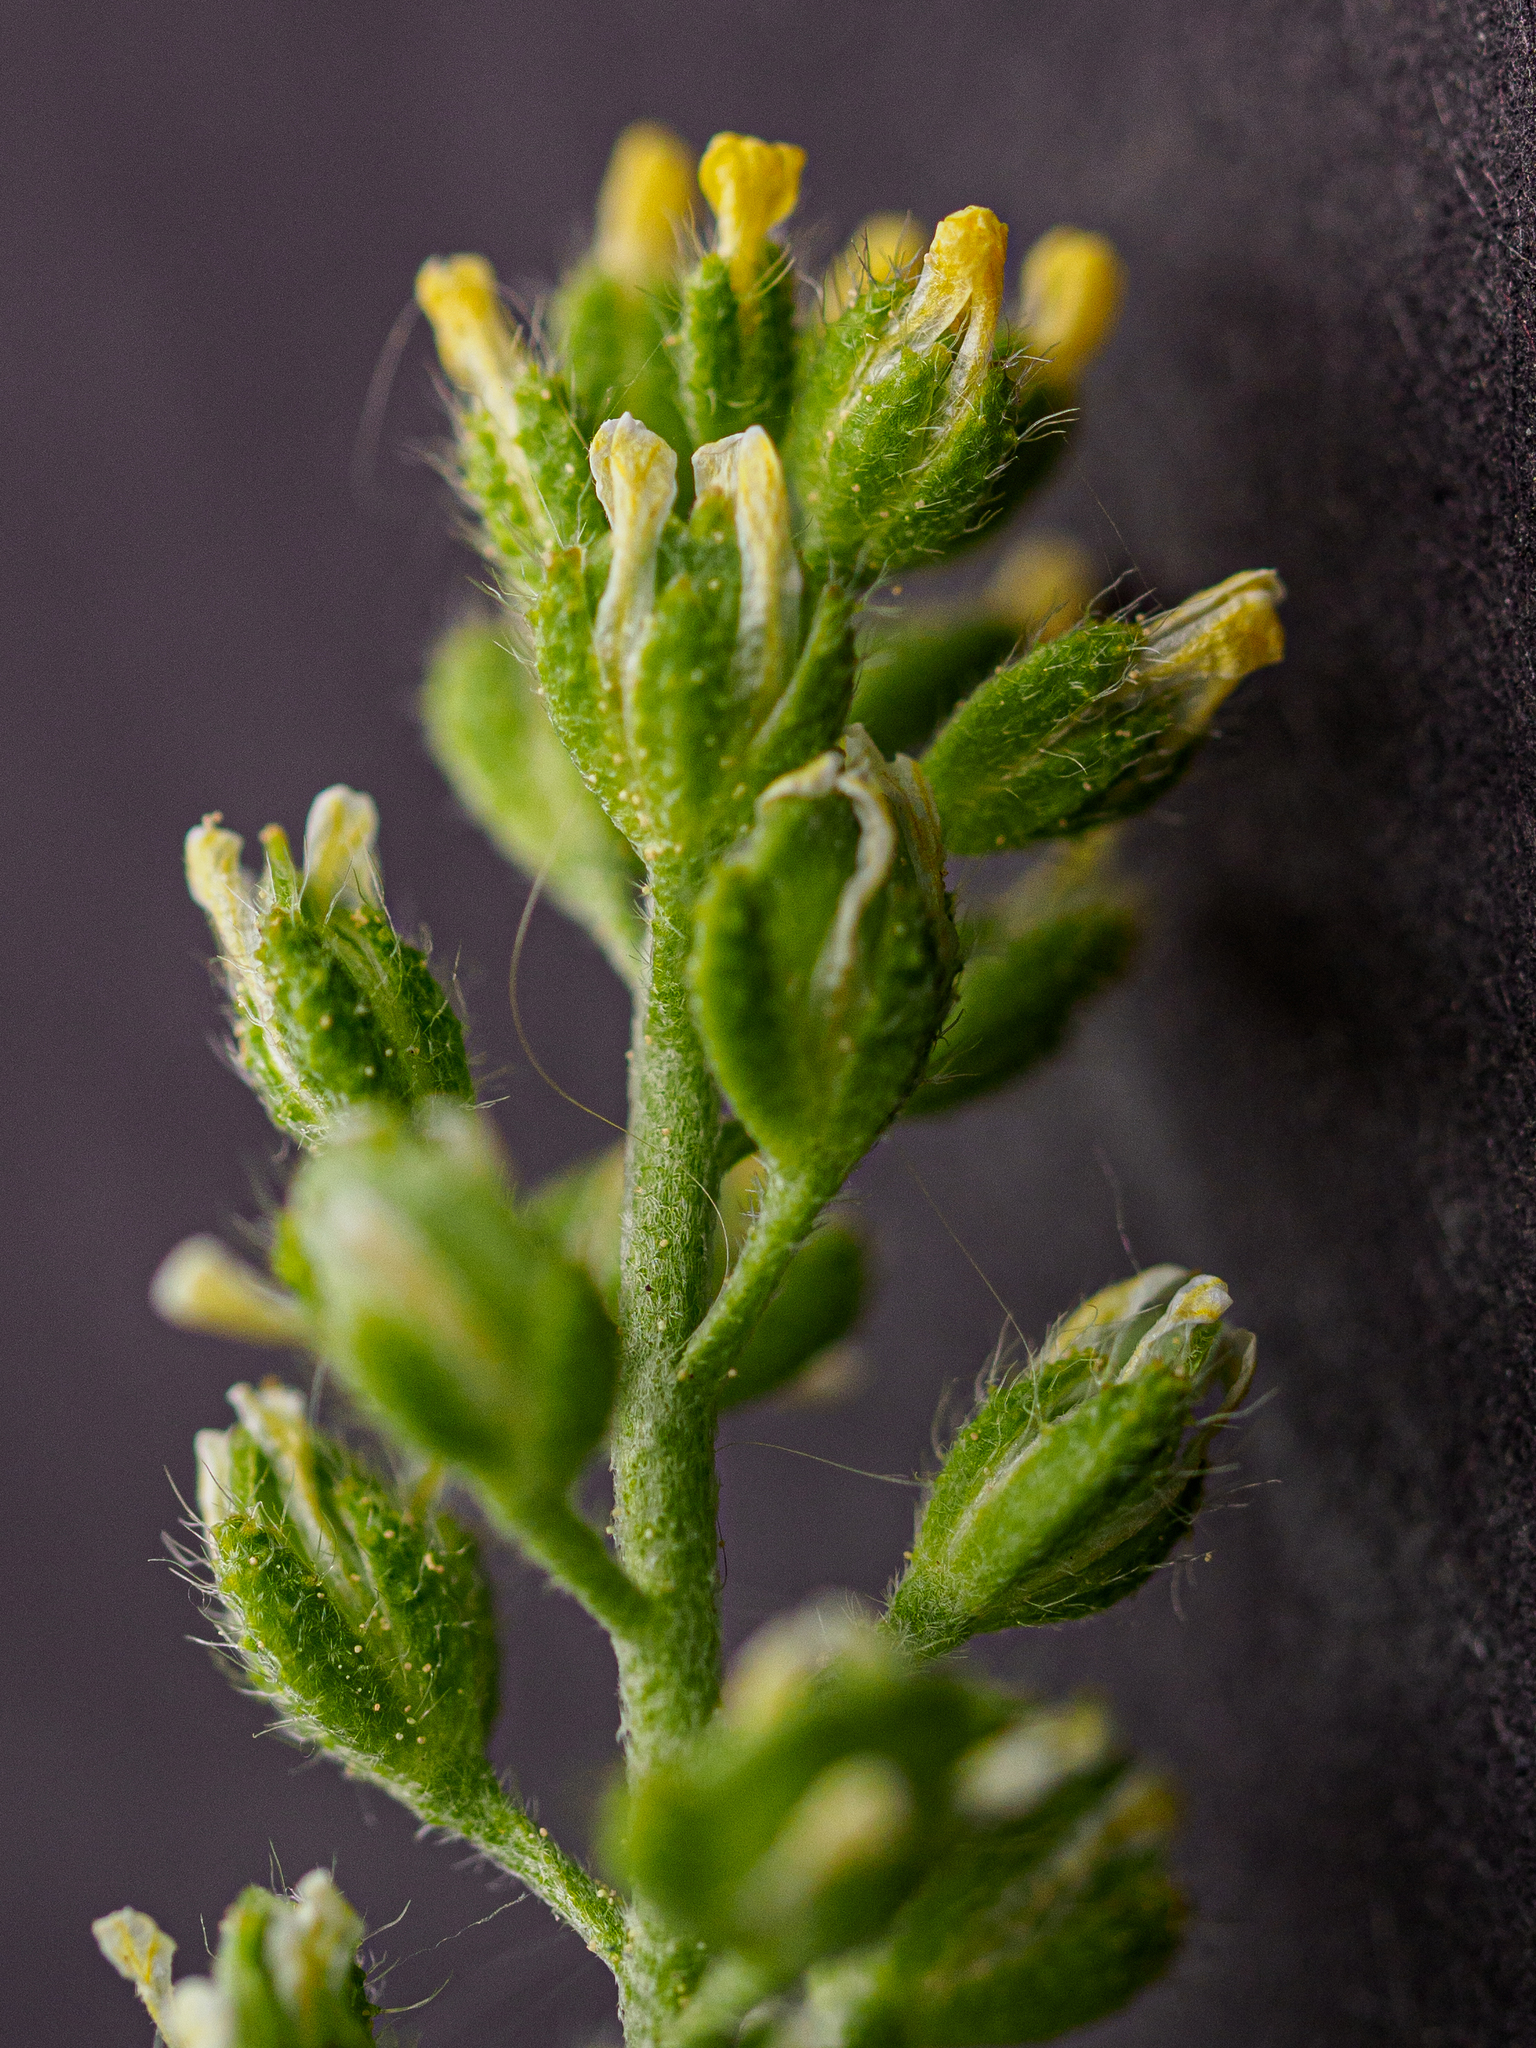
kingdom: Plantae
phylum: Tracheophyta
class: Magnoliopsida
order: Brassicales
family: Brassicaceae
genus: Alyssum
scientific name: Alyssum alyssoides
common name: Small alison
